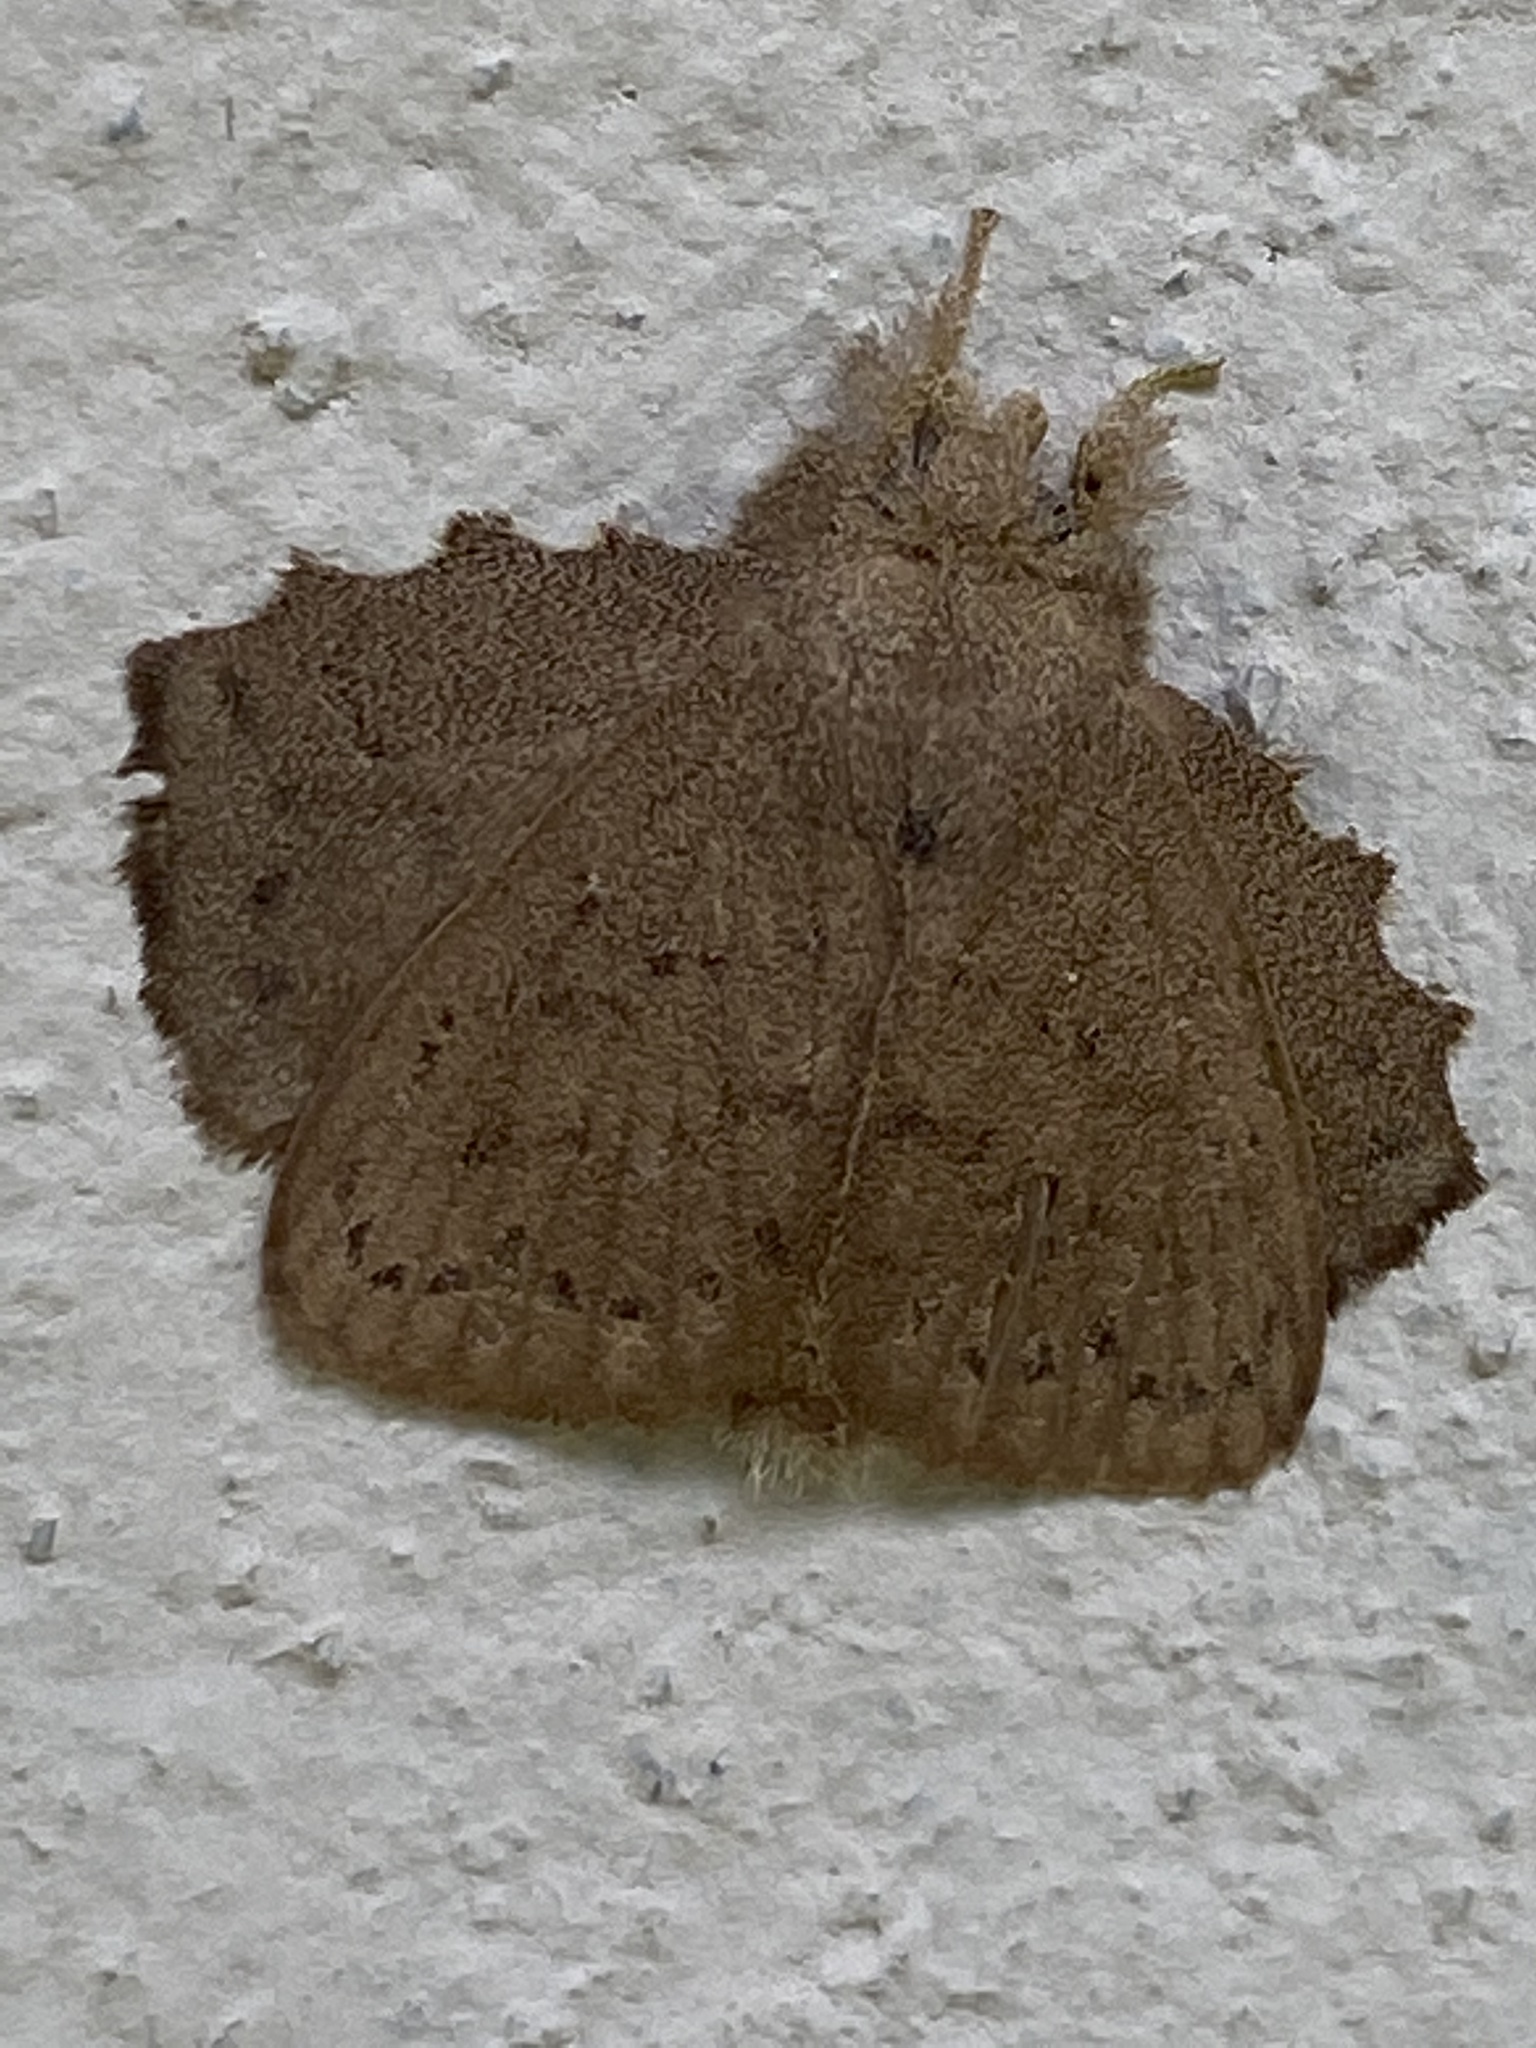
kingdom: Animalia
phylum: Arthropoda
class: Insecta
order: Lepidoptera
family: Lasiocampidae
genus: Euglyphis
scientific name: Euglyphis modesta
